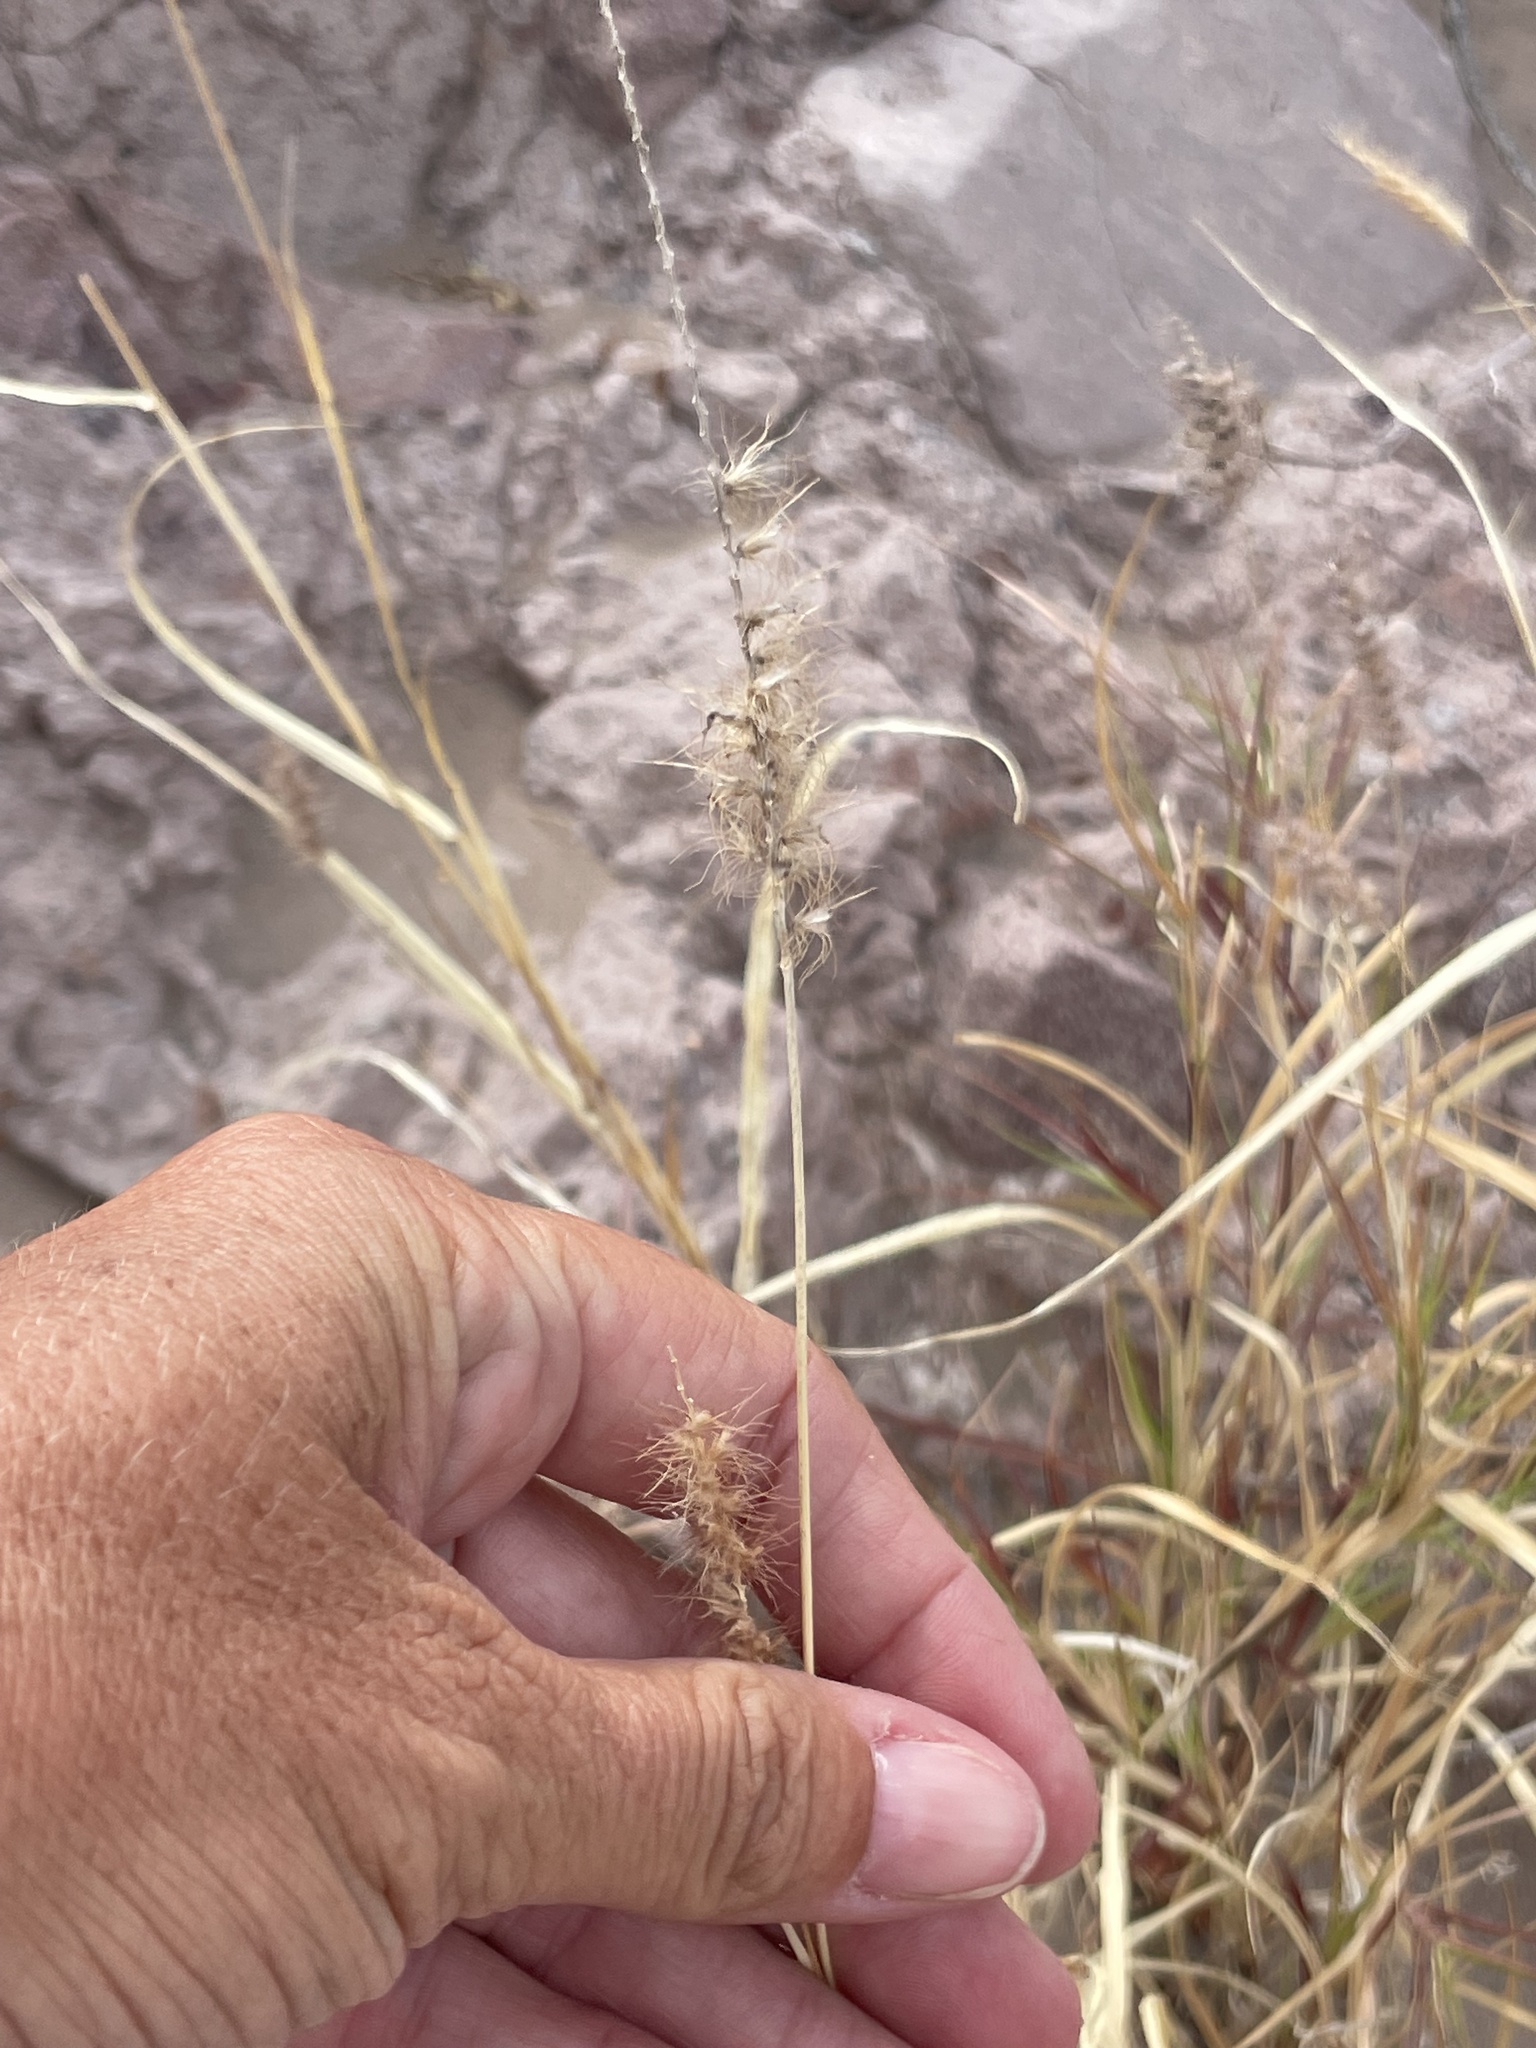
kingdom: Plantae
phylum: Tracheophyta
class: Liliopsida
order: Poales
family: Poaceae
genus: Cenchrus
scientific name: Cenchrus ciliaris
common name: Buffelgrass
